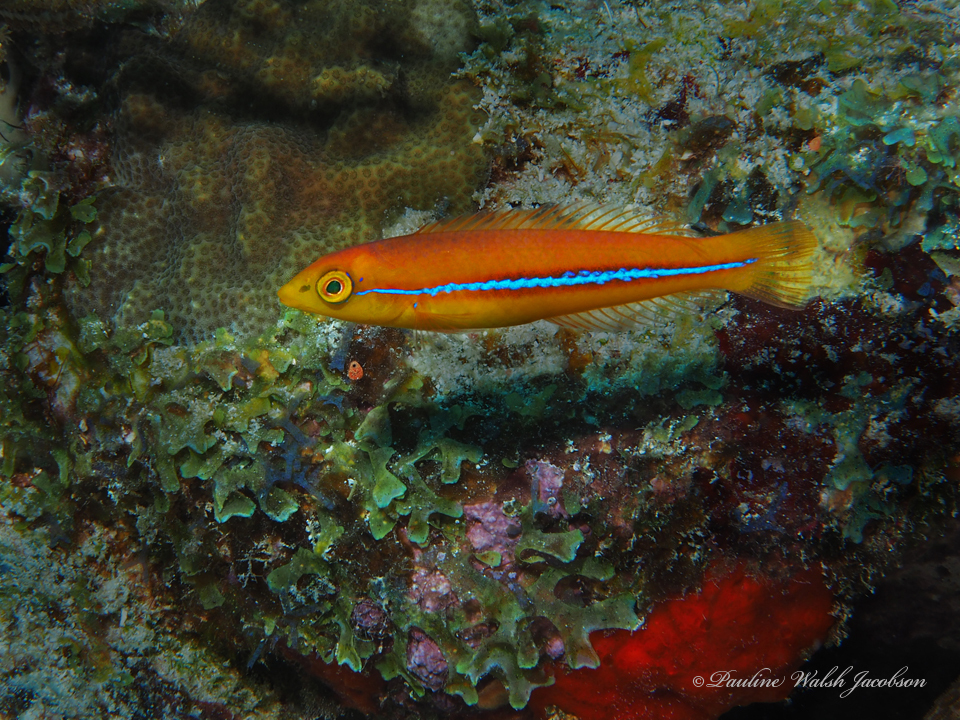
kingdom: Animalia
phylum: Chordata
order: Perciformes
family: Labridae
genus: Halichoeres
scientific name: Halichoeres garnoti
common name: Yellowhead wrasse
